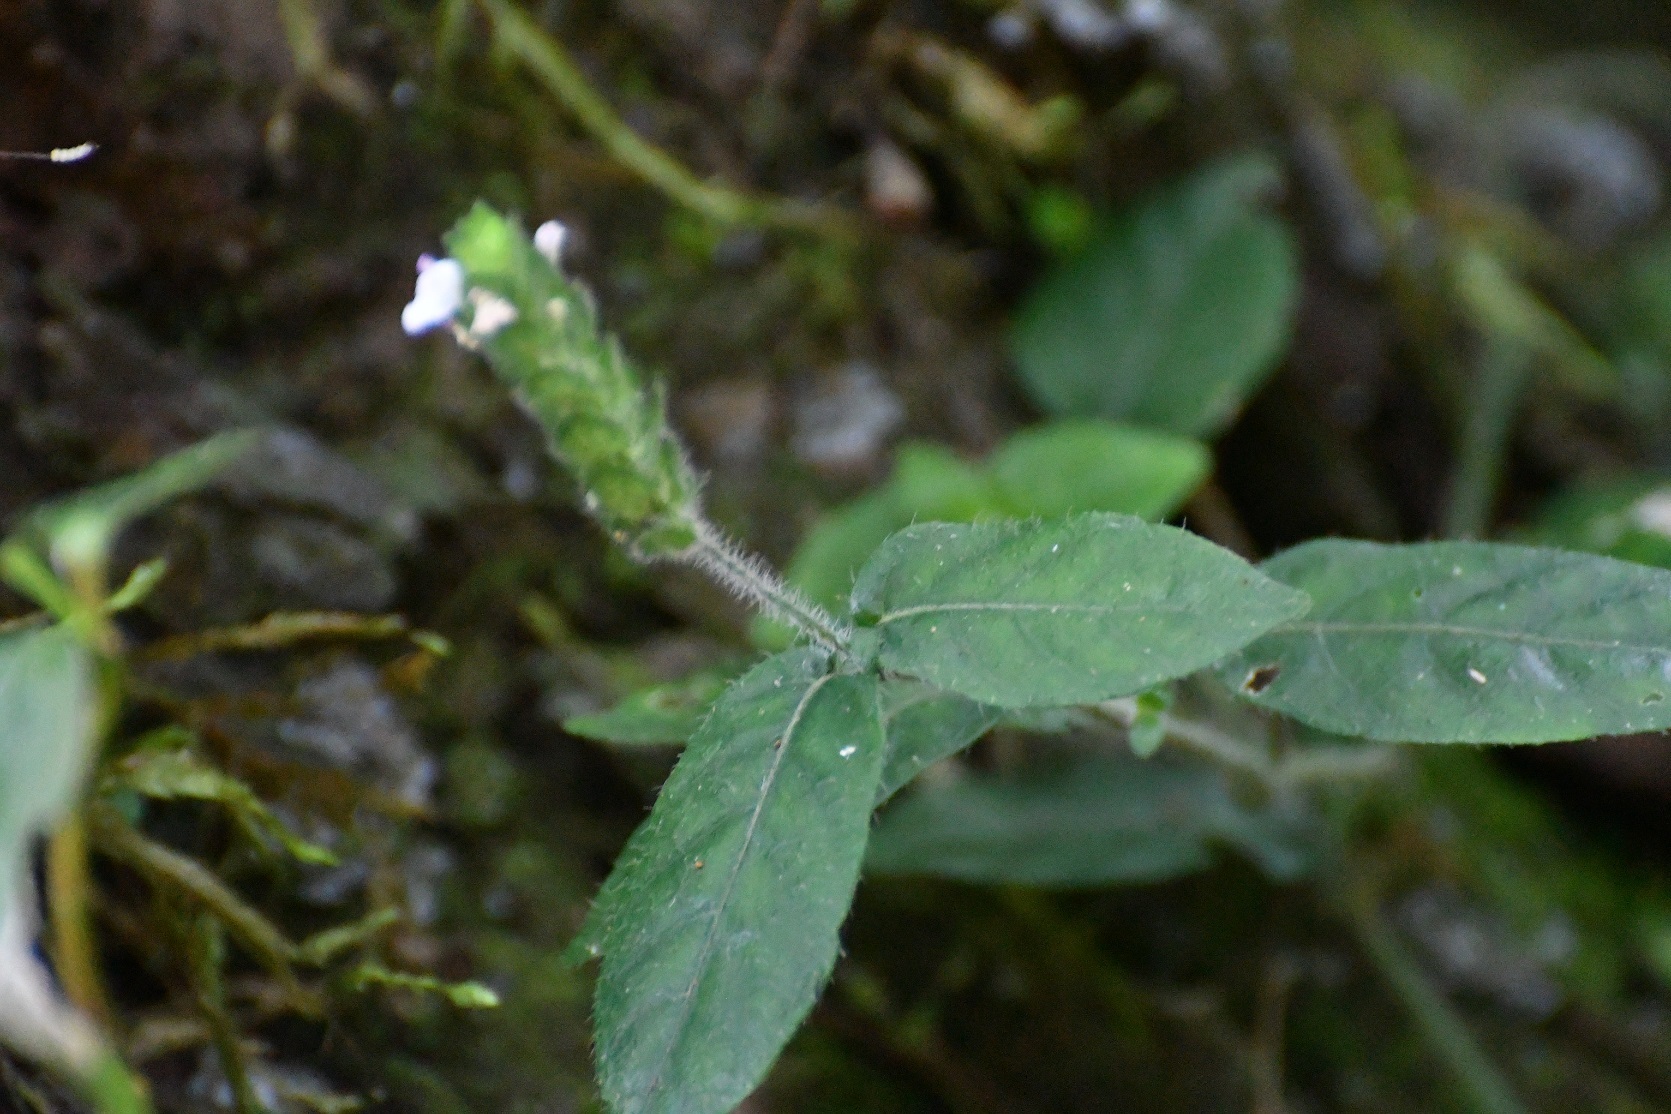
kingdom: Plantae
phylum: Tracheophyta
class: Magnoliopsida
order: Lamiales
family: Acanthaceae
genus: Dianthera
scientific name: Dianthera candelariae
